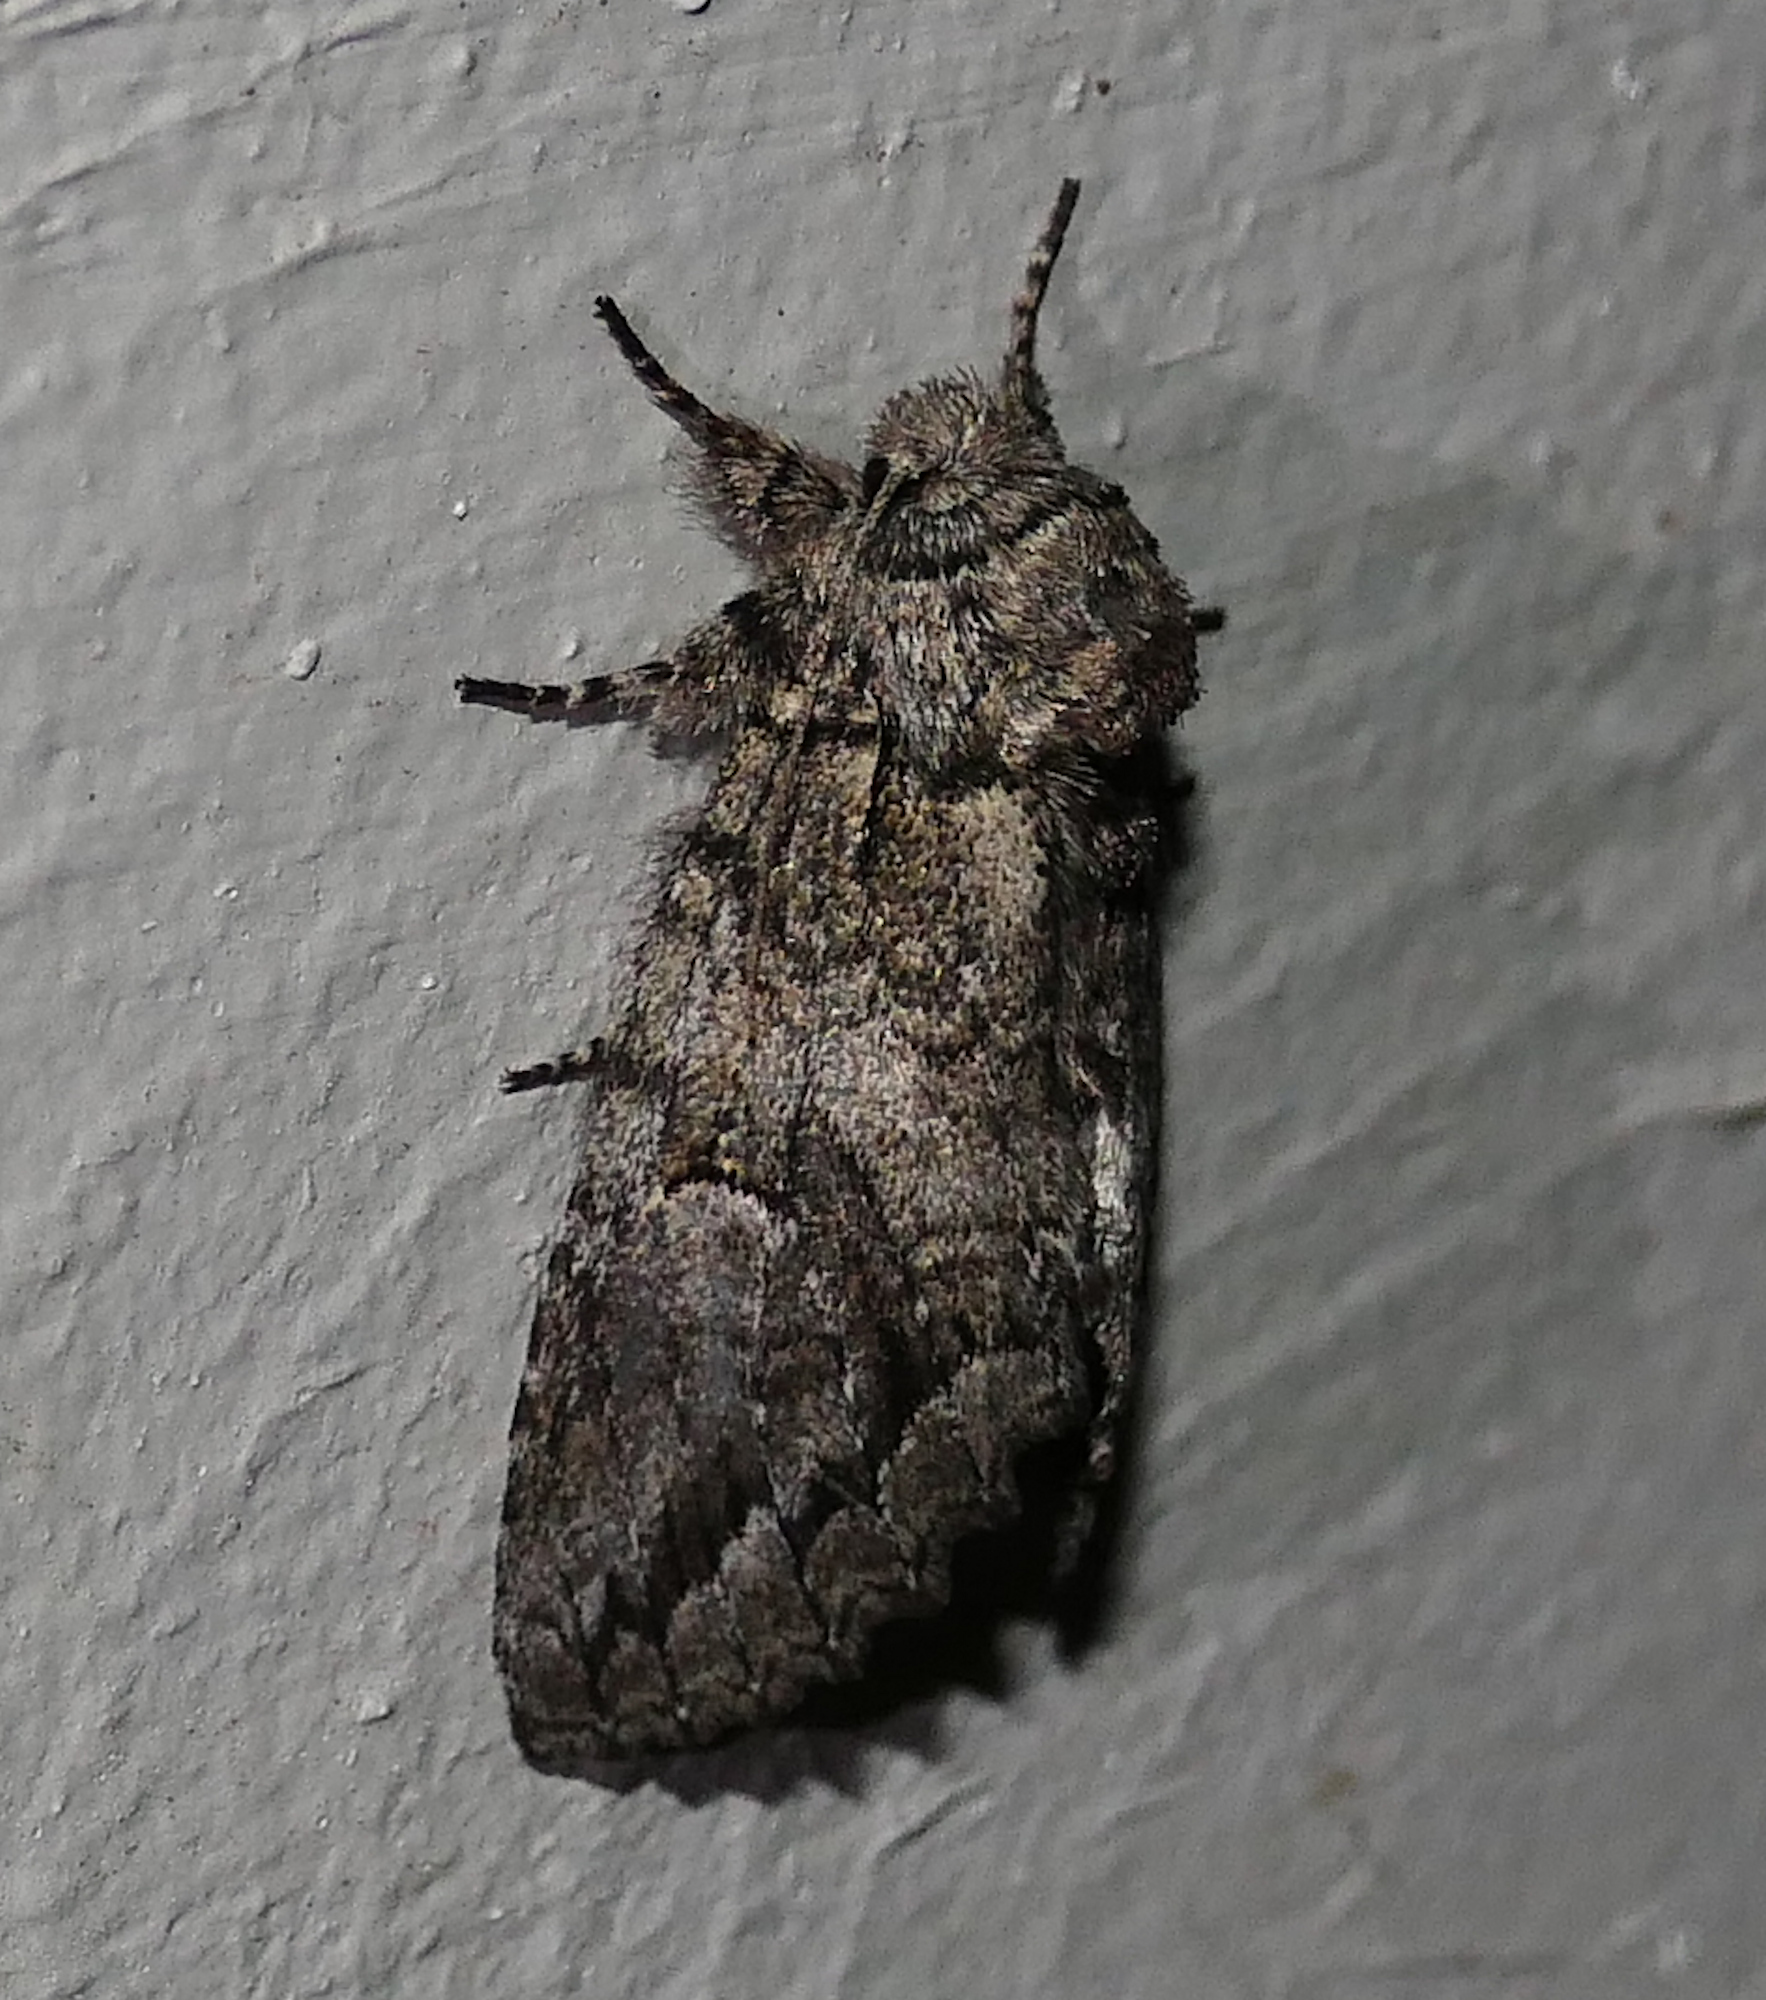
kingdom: Animalia
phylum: Arthropoda
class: Insecta
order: Lepidoptera
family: Notodontidae
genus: Heterocampa
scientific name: Heterocampa averna
